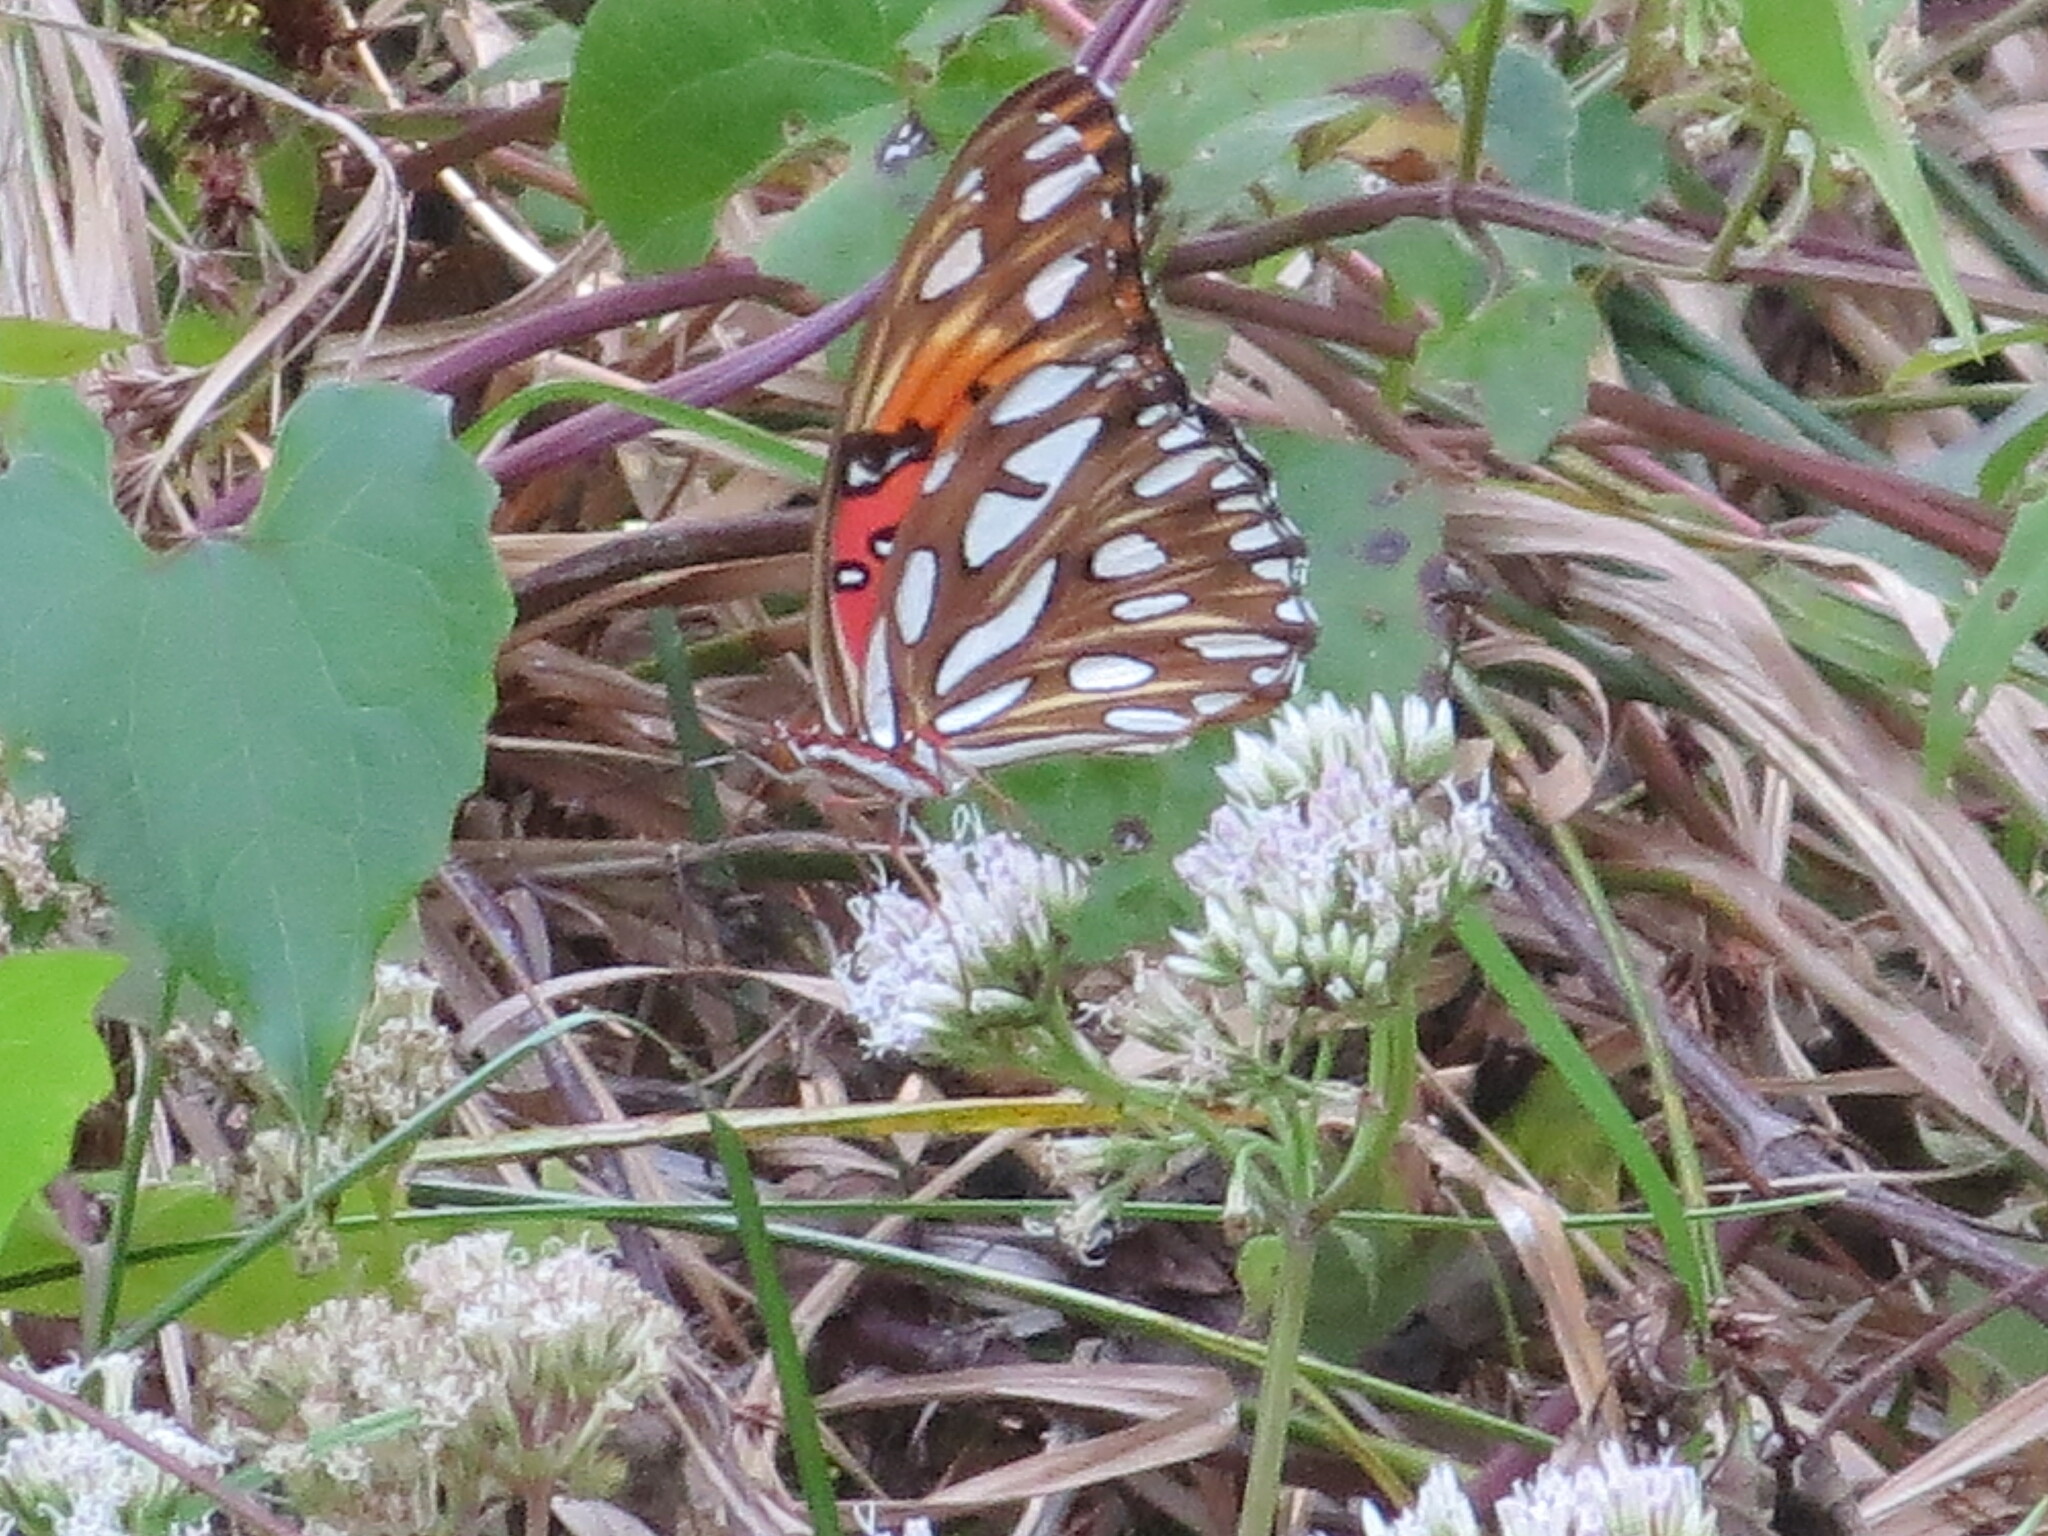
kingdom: Animalia
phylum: Arthropoda
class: Insecta
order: Lepidoptera
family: Nymphalidae
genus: Dione
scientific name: Dione vanillae
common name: Gulf fritillary
